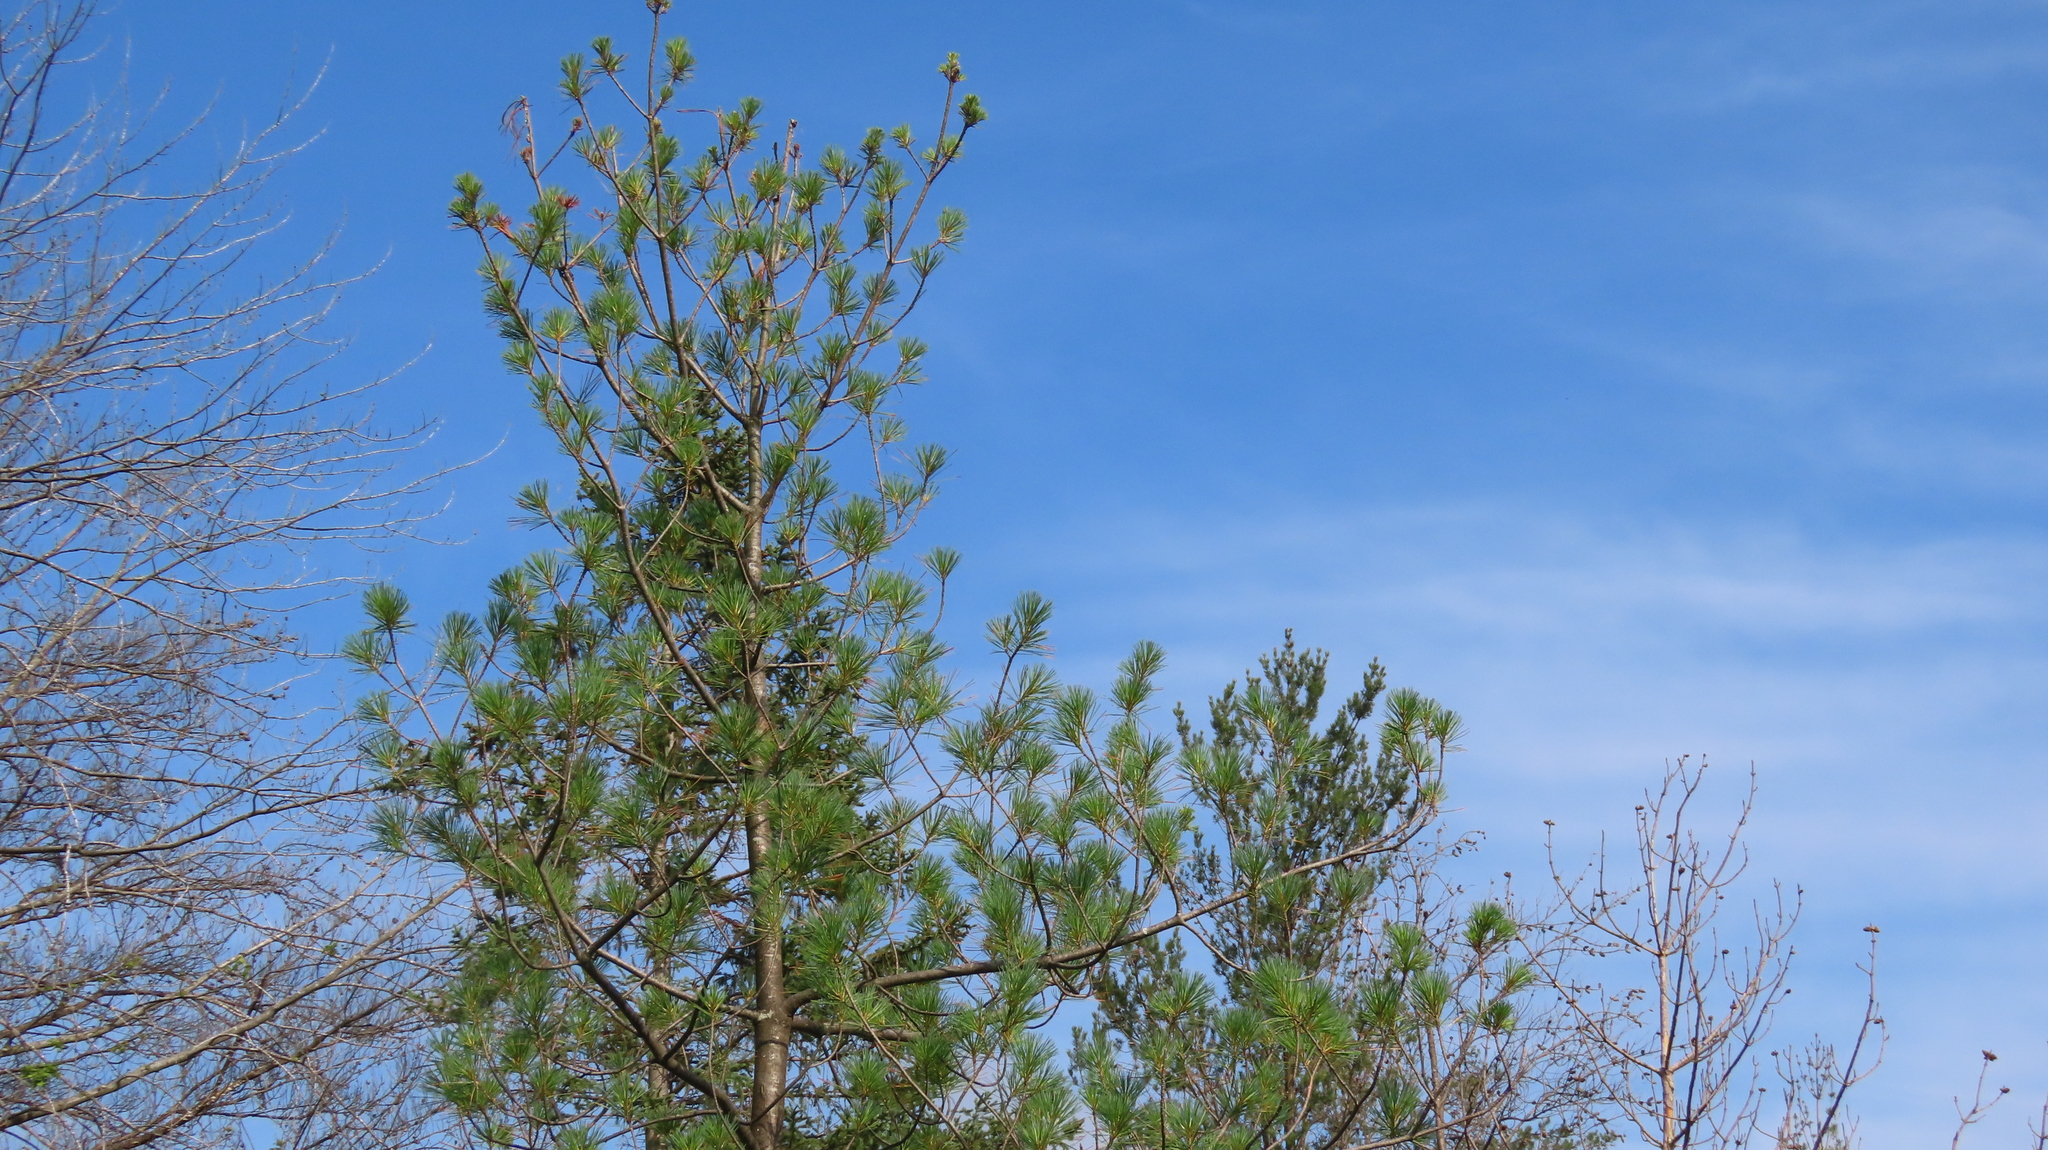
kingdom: Plantae
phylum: Tracheophyta
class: Pinopsida
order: Pinales
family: Pinaceae
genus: Pinus
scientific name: Pinus strobus
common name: Weymouth pine
